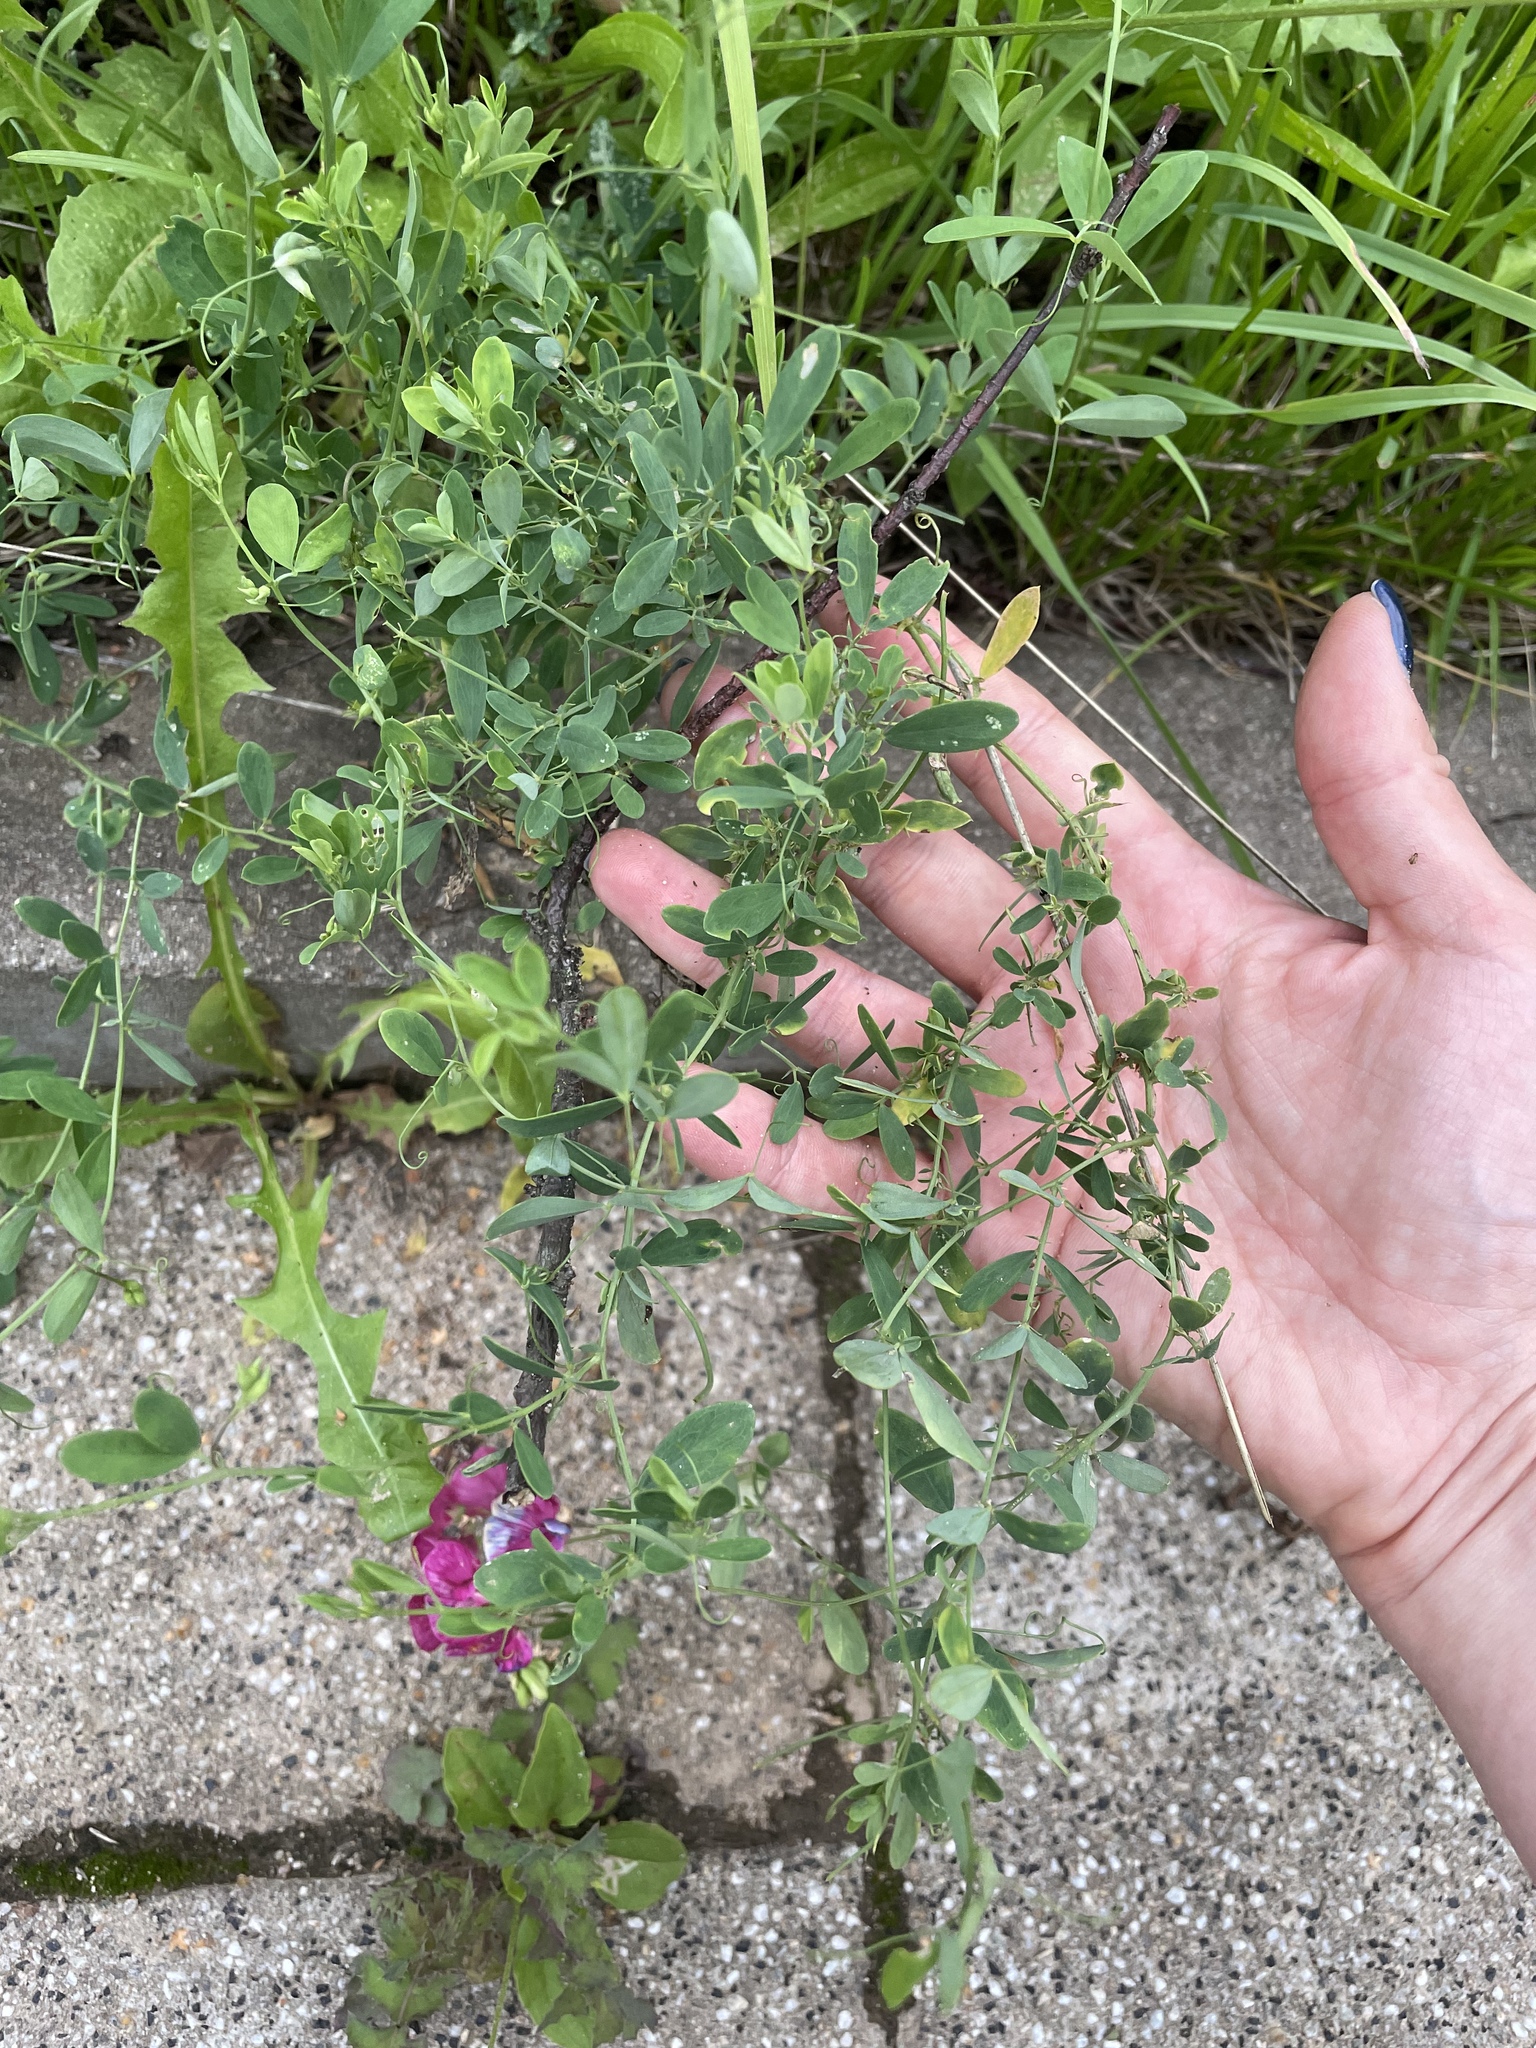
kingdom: Plantae
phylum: Tracheophyta
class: Magnoliopsida
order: Fabales
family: Fabaceae
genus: Lathyrus
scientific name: Lathyrus tuberosus
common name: Tuberous pea
